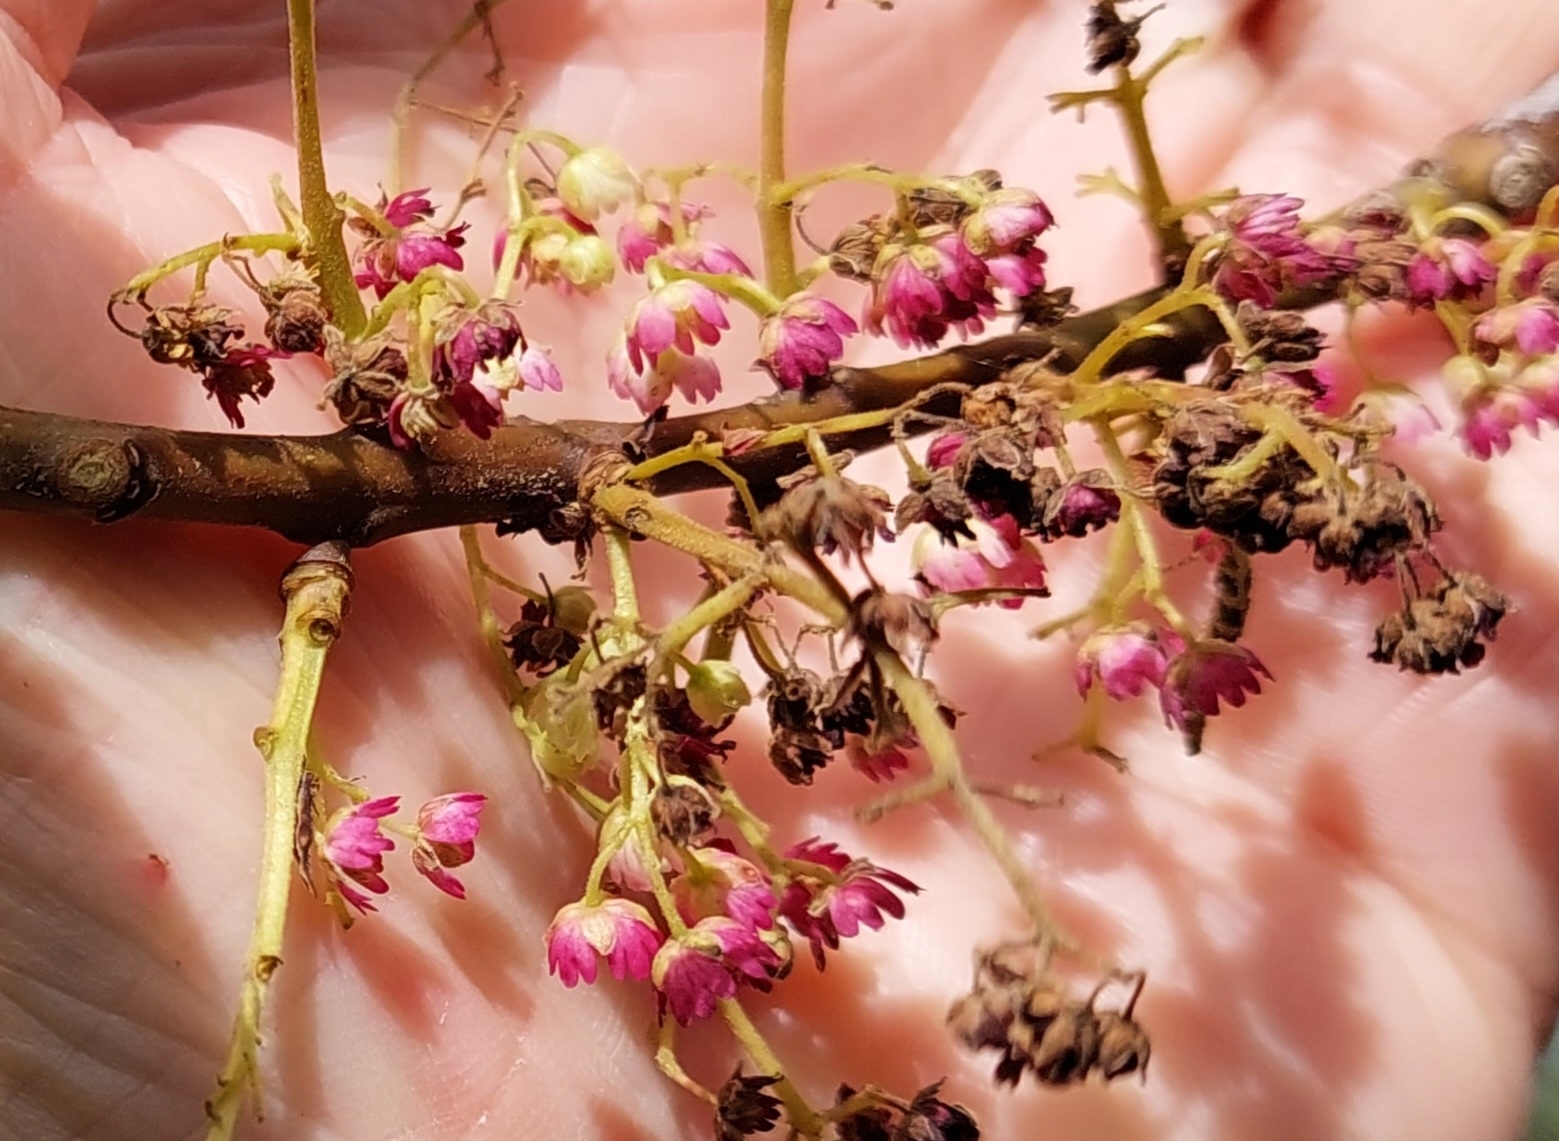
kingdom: Plantae
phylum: Tracheophyta
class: Magnoliopsida
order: Oxalidales
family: Elaeocarpaceae
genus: Aristotelia
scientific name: Aristotelia serrata
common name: New zealand wineberry
